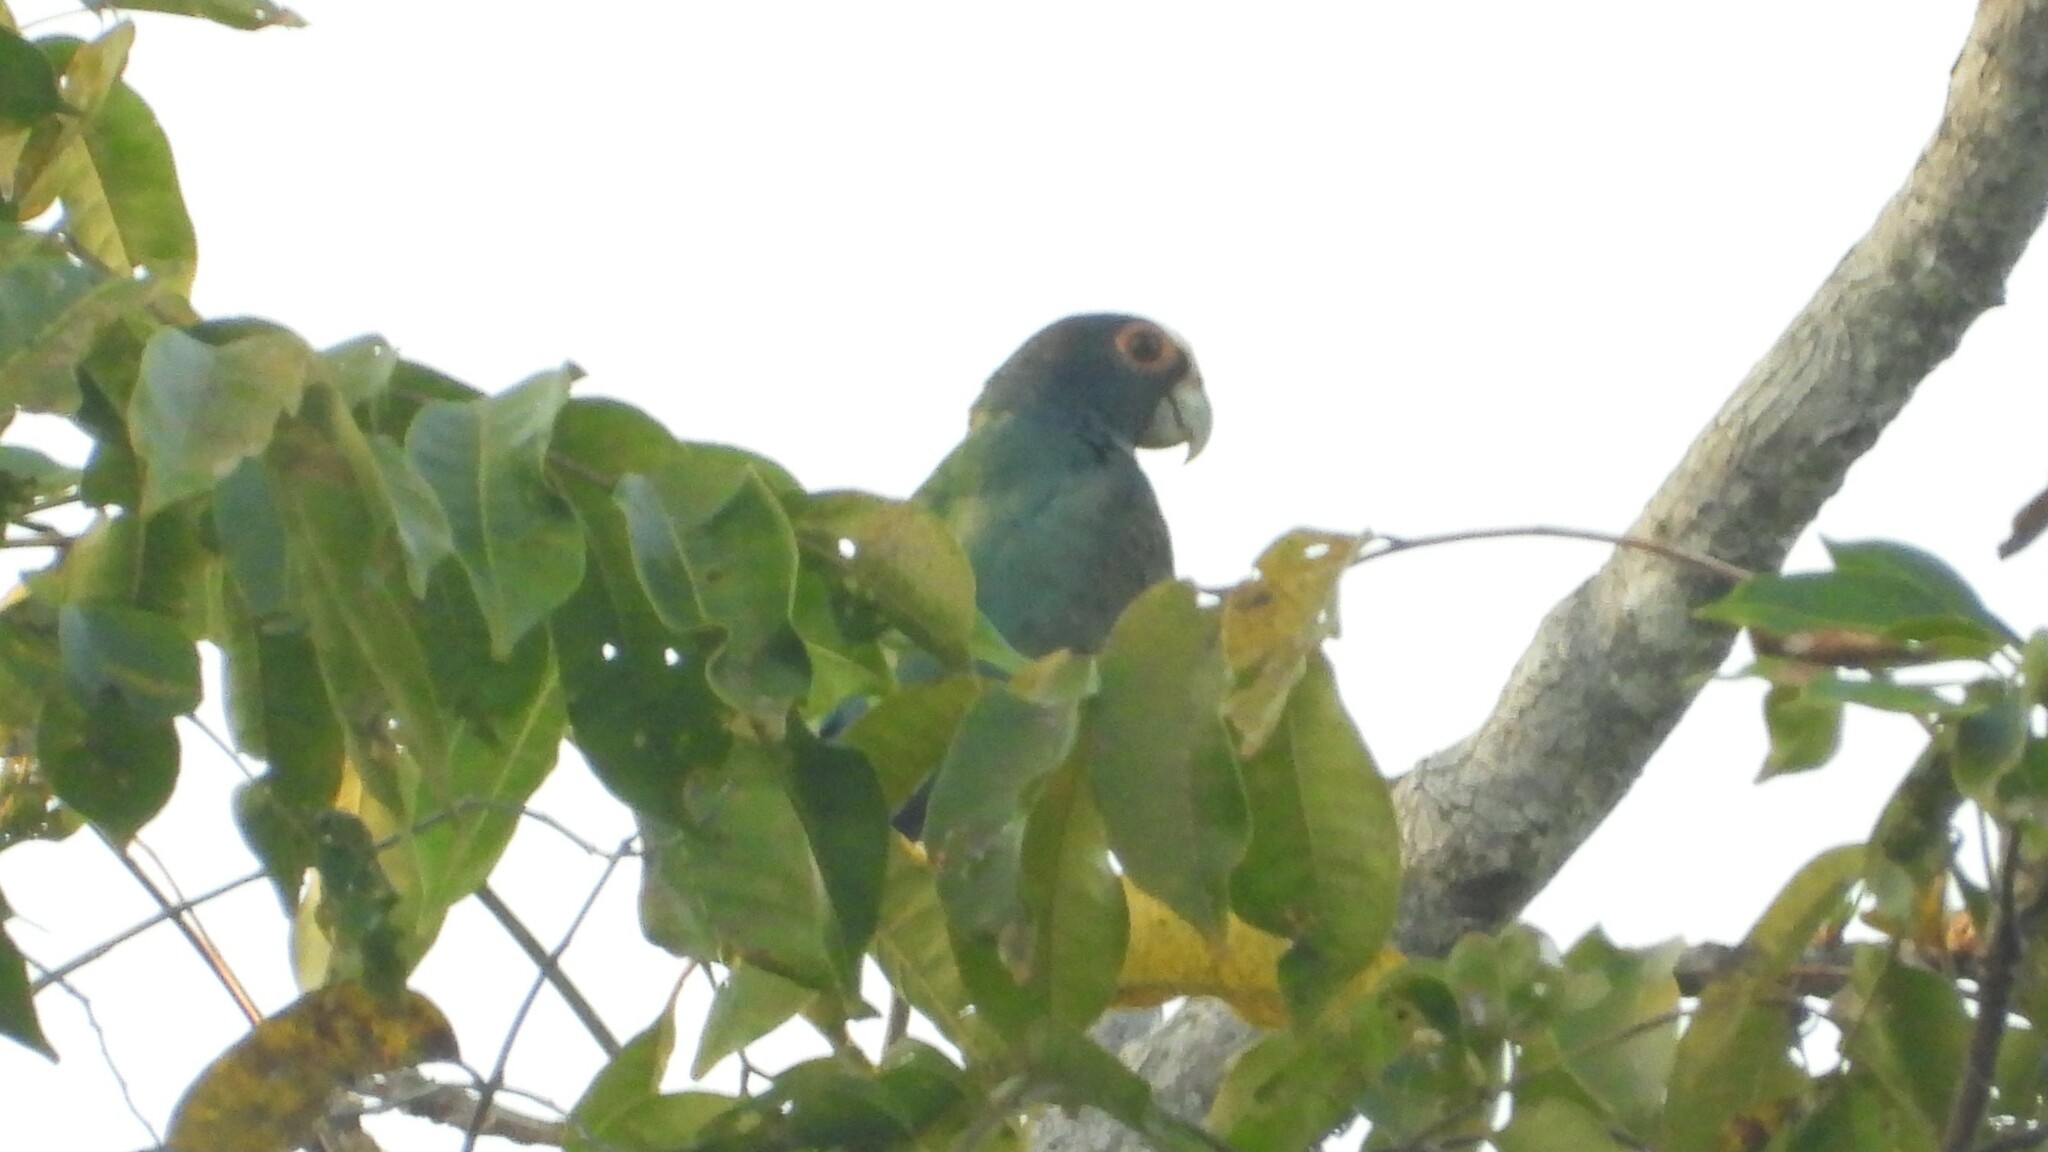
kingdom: Animalia
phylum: Chordata
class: Aves
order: Psittaciformes
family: Psittacidae
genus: Pionus
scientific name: Pionus senilis
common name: White-crowned parrot
